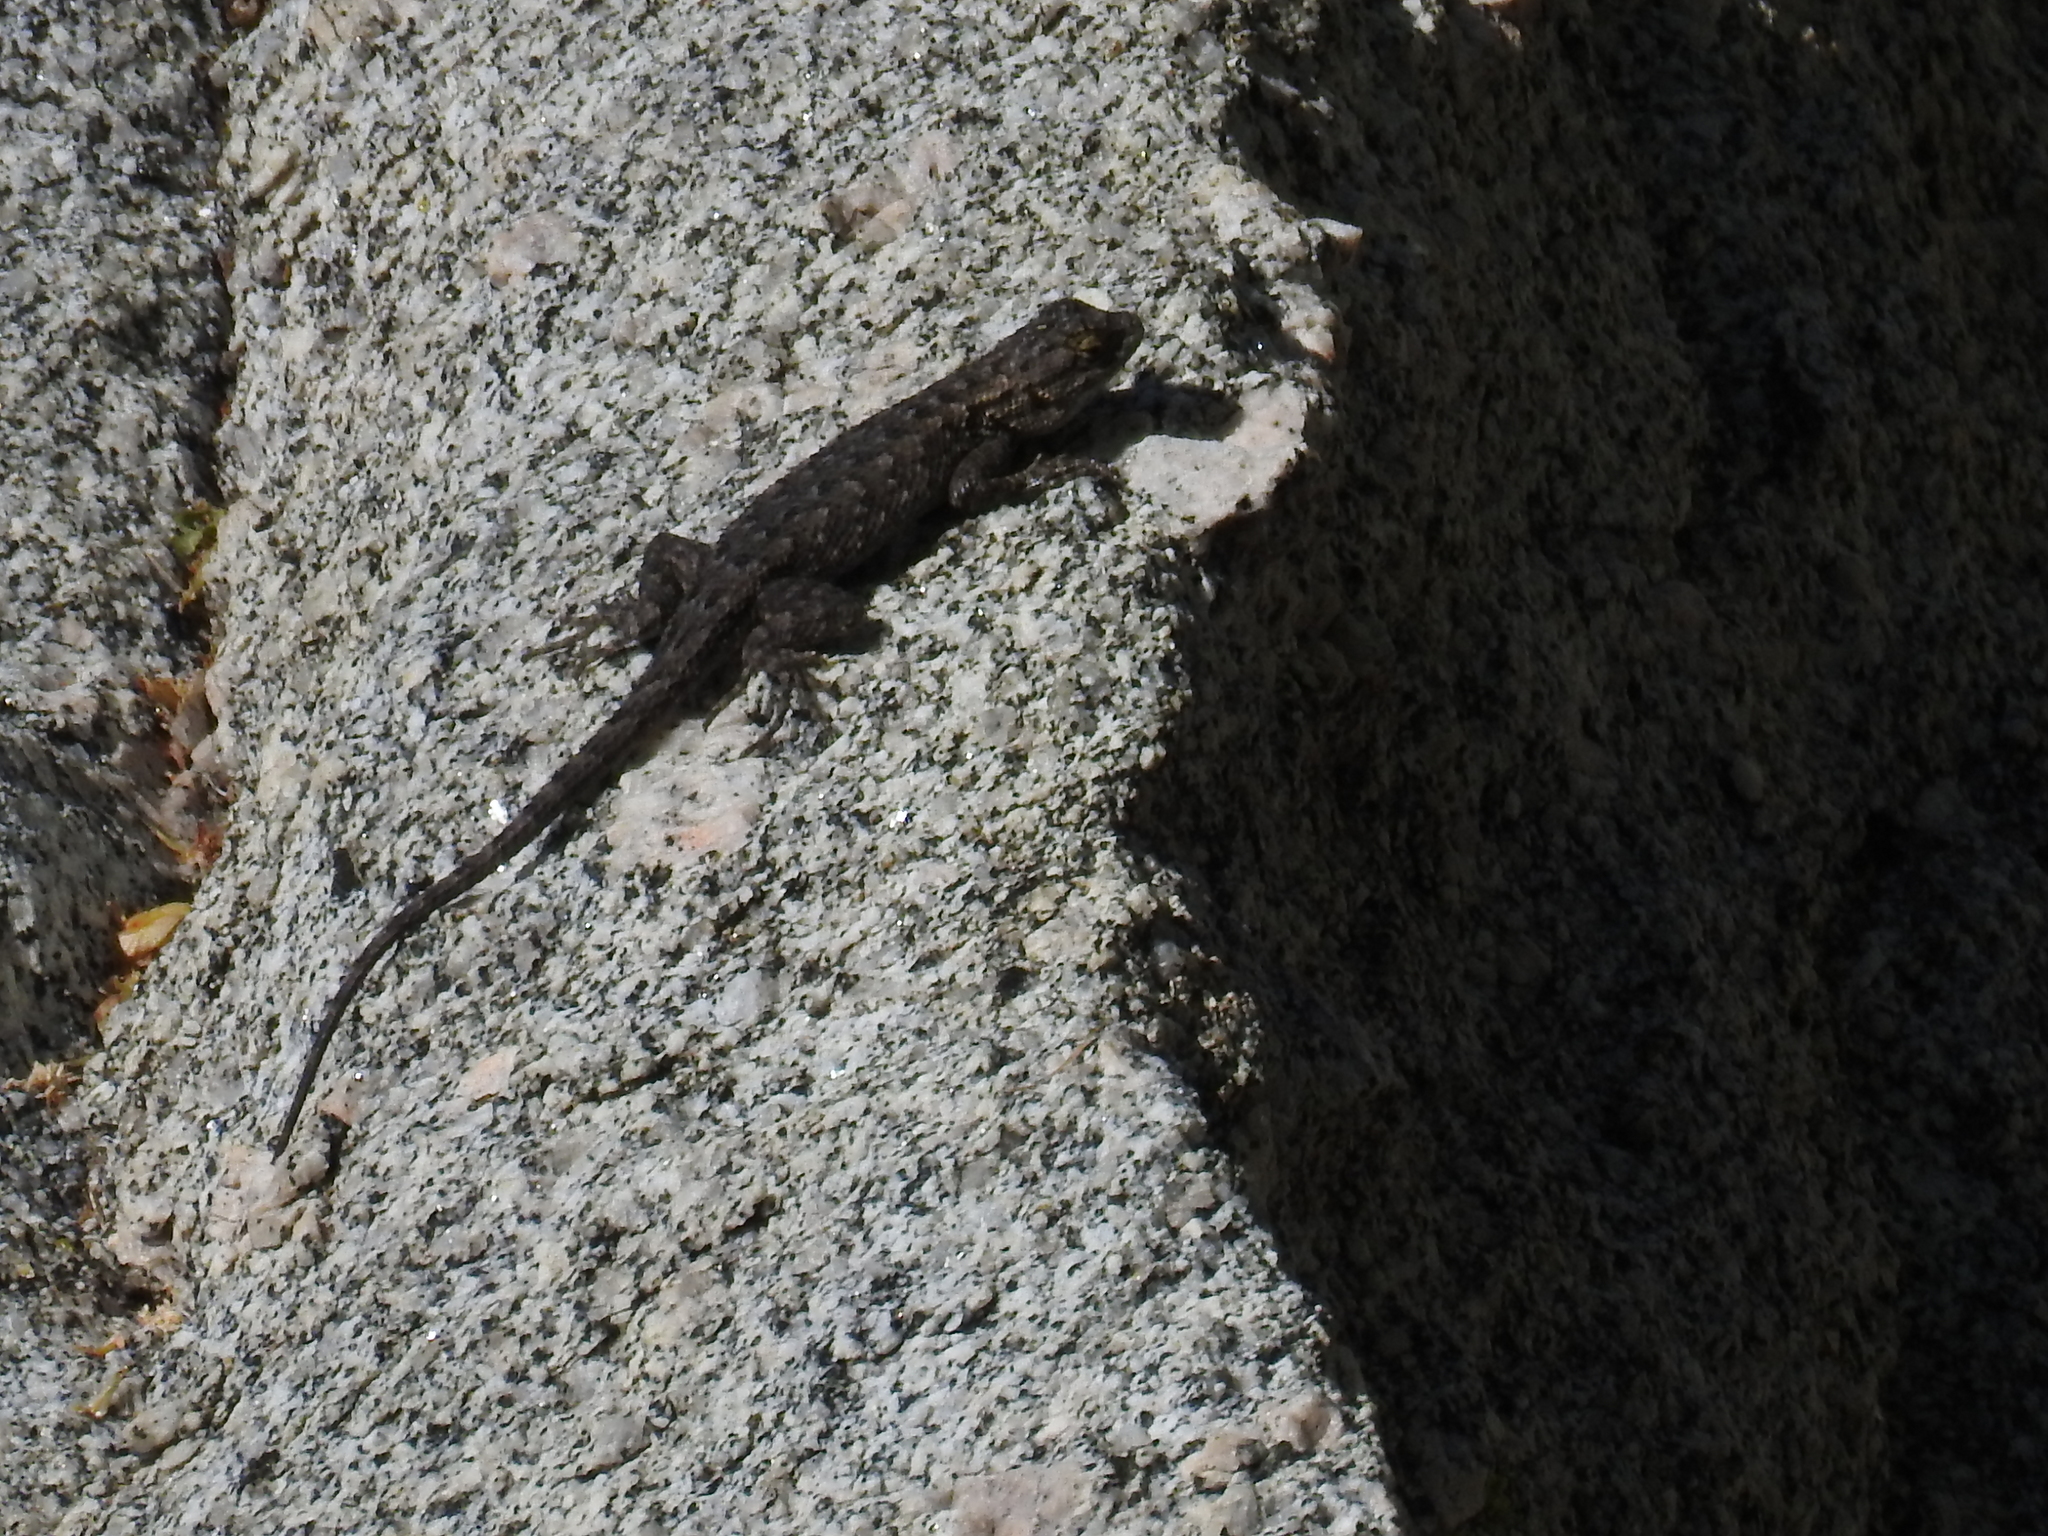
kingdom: Animalia
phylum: Chordata
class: Squamata
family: Phrynosomatidae
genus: Sceloporus
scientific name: Sceloporus occidentalis
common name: Western fence lizard
